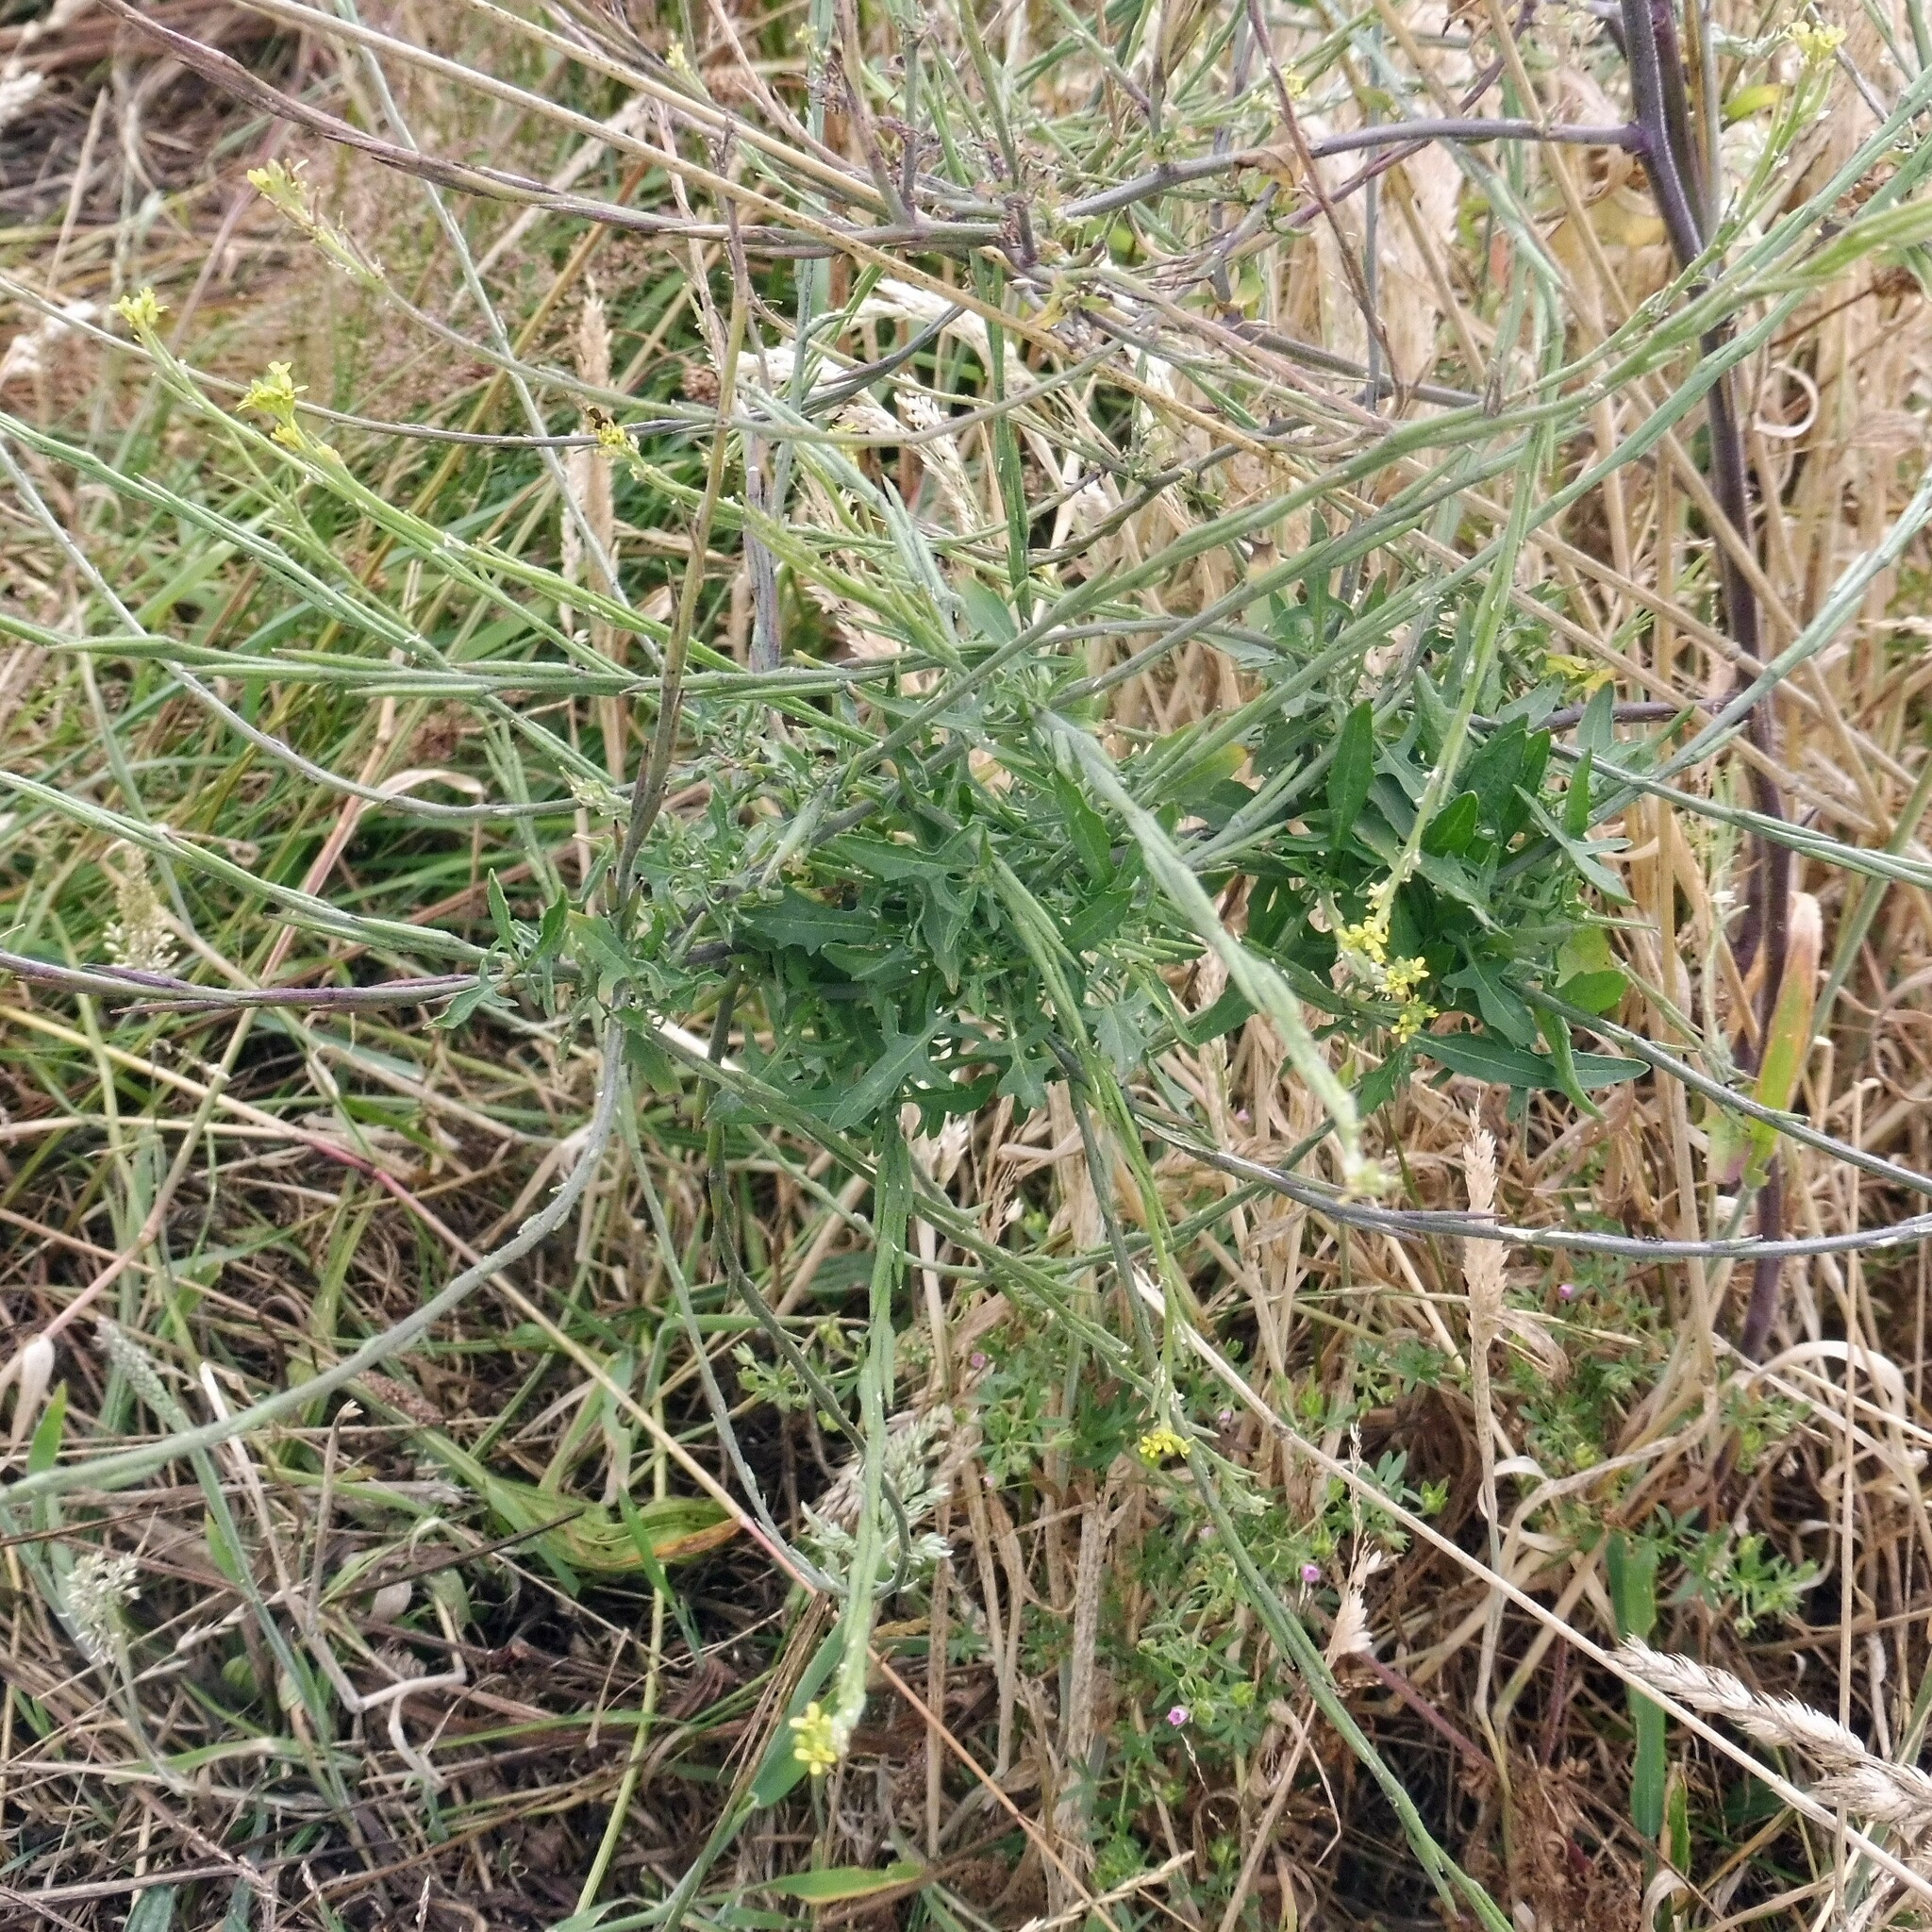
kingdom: Plantae
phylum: Tracheophyta
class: Magnoliopsida
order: Brassicales
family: Brassicaceae
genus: Sisymbrium
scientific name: Sisymbrium officinale
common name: Hedge mustard
